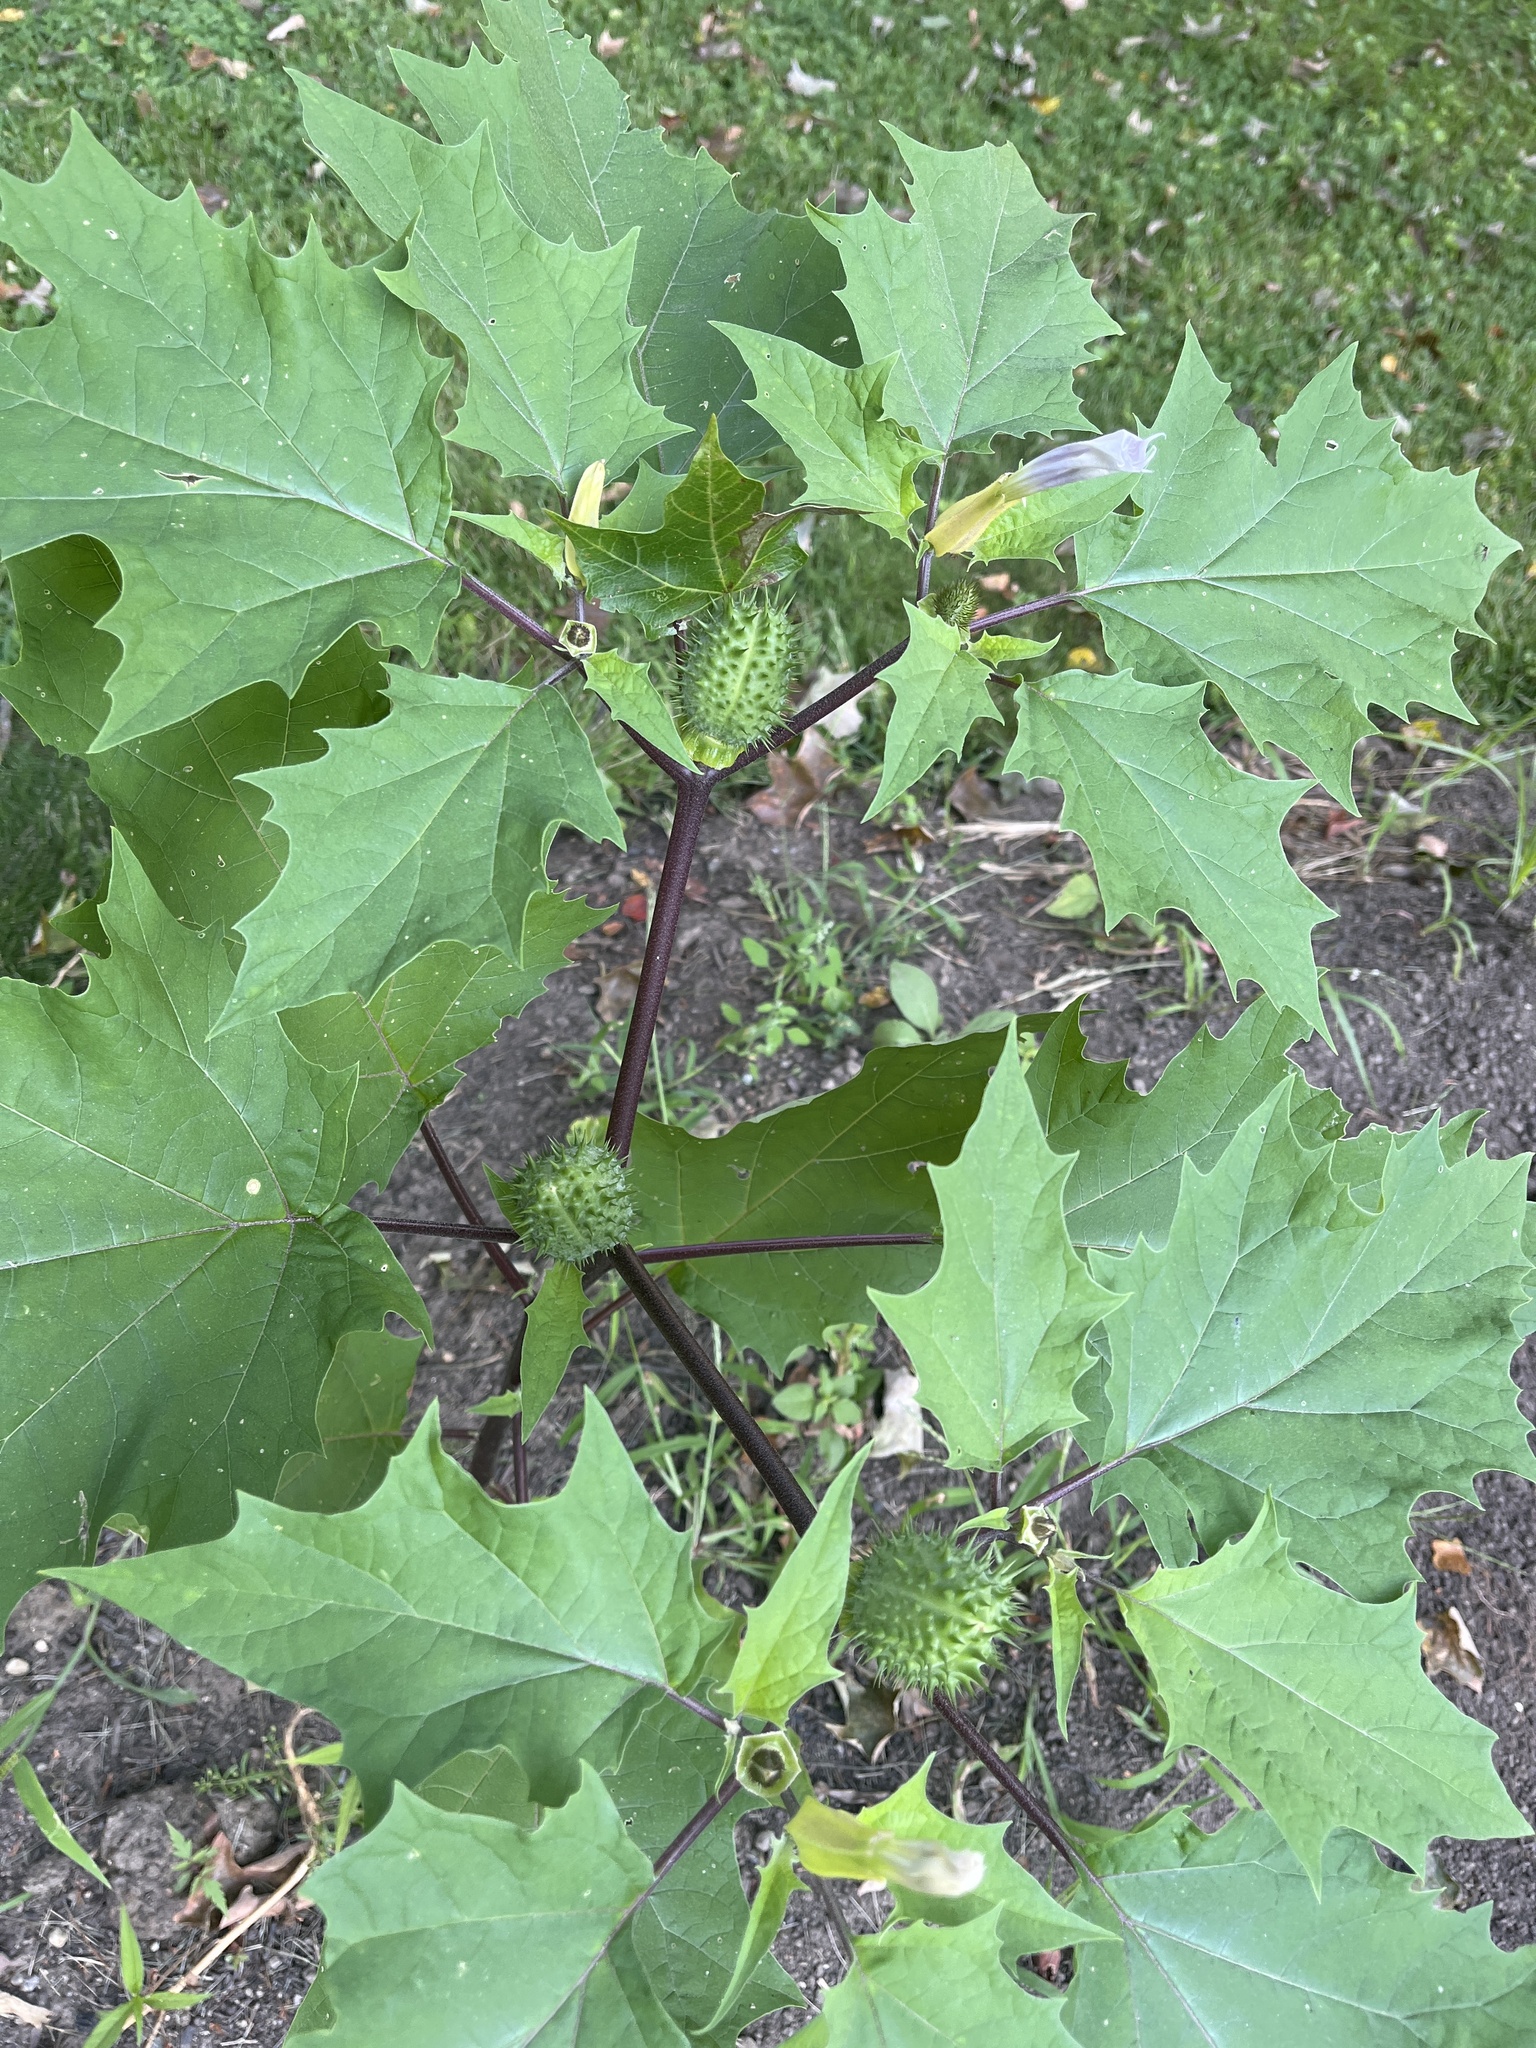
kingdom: Plantae
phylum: Tracheophyta
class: Magnoliopsida
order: Solanales
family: Solanaceae
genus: Datura
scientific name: Datura stramonium
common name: Thorn-apple
